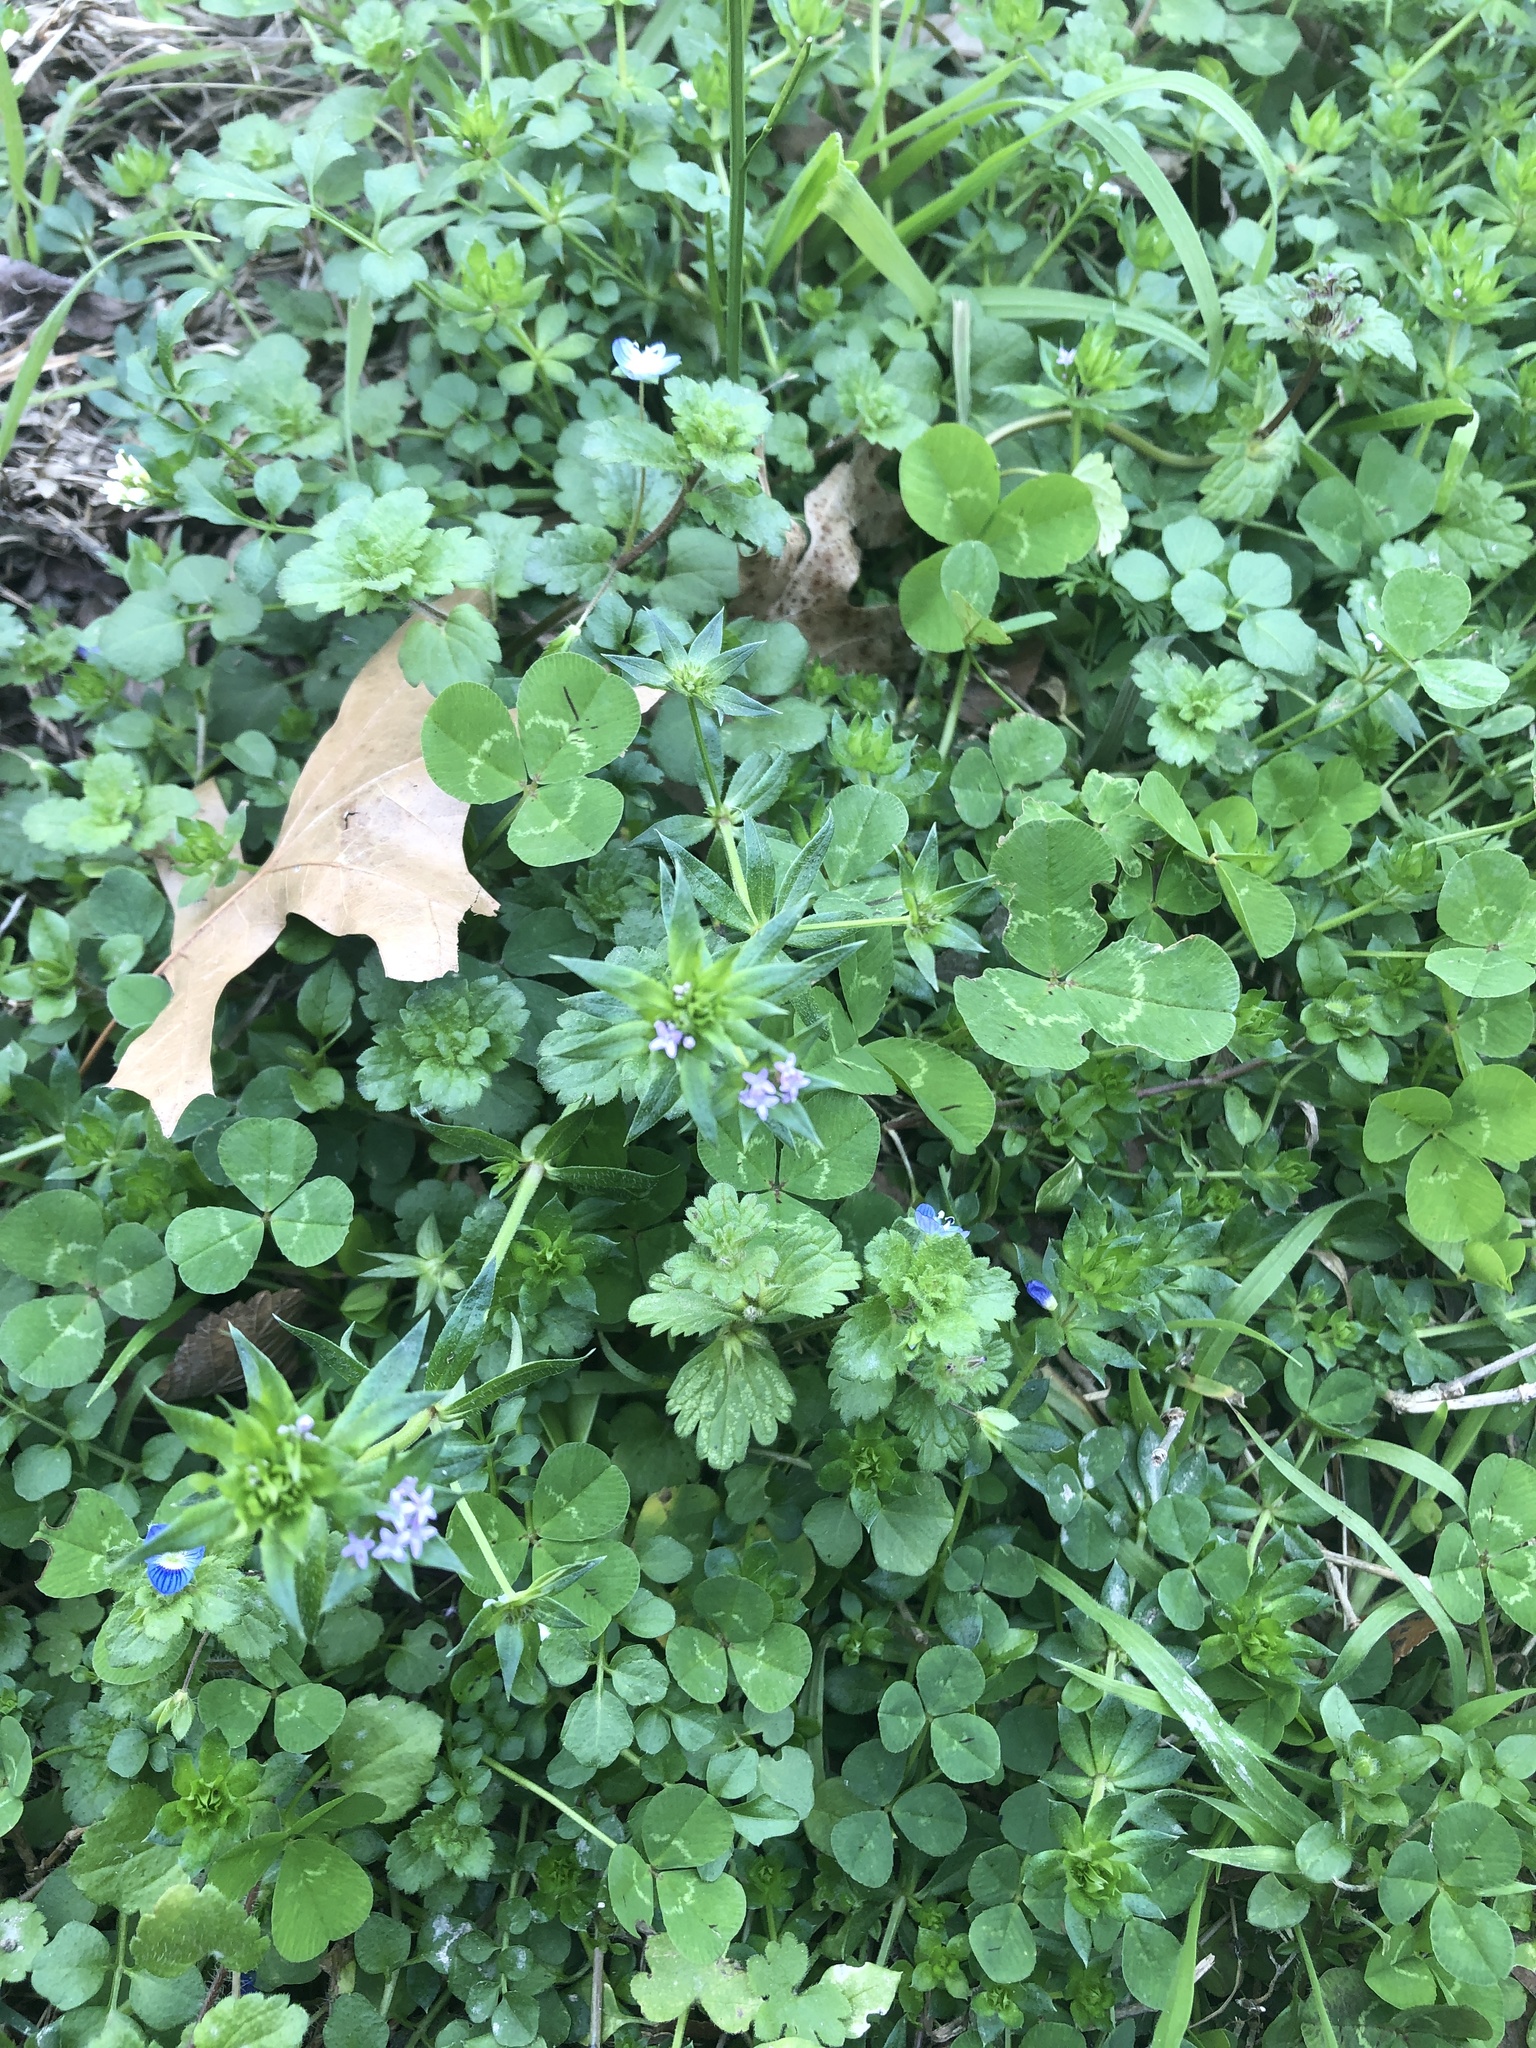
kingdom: Plantae
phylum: Tracheophyta
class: Magnoliopsida
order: Gentianales
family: Rubiaceae
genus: Sherardia
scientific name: Sherardia arvensis
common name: Field madder
